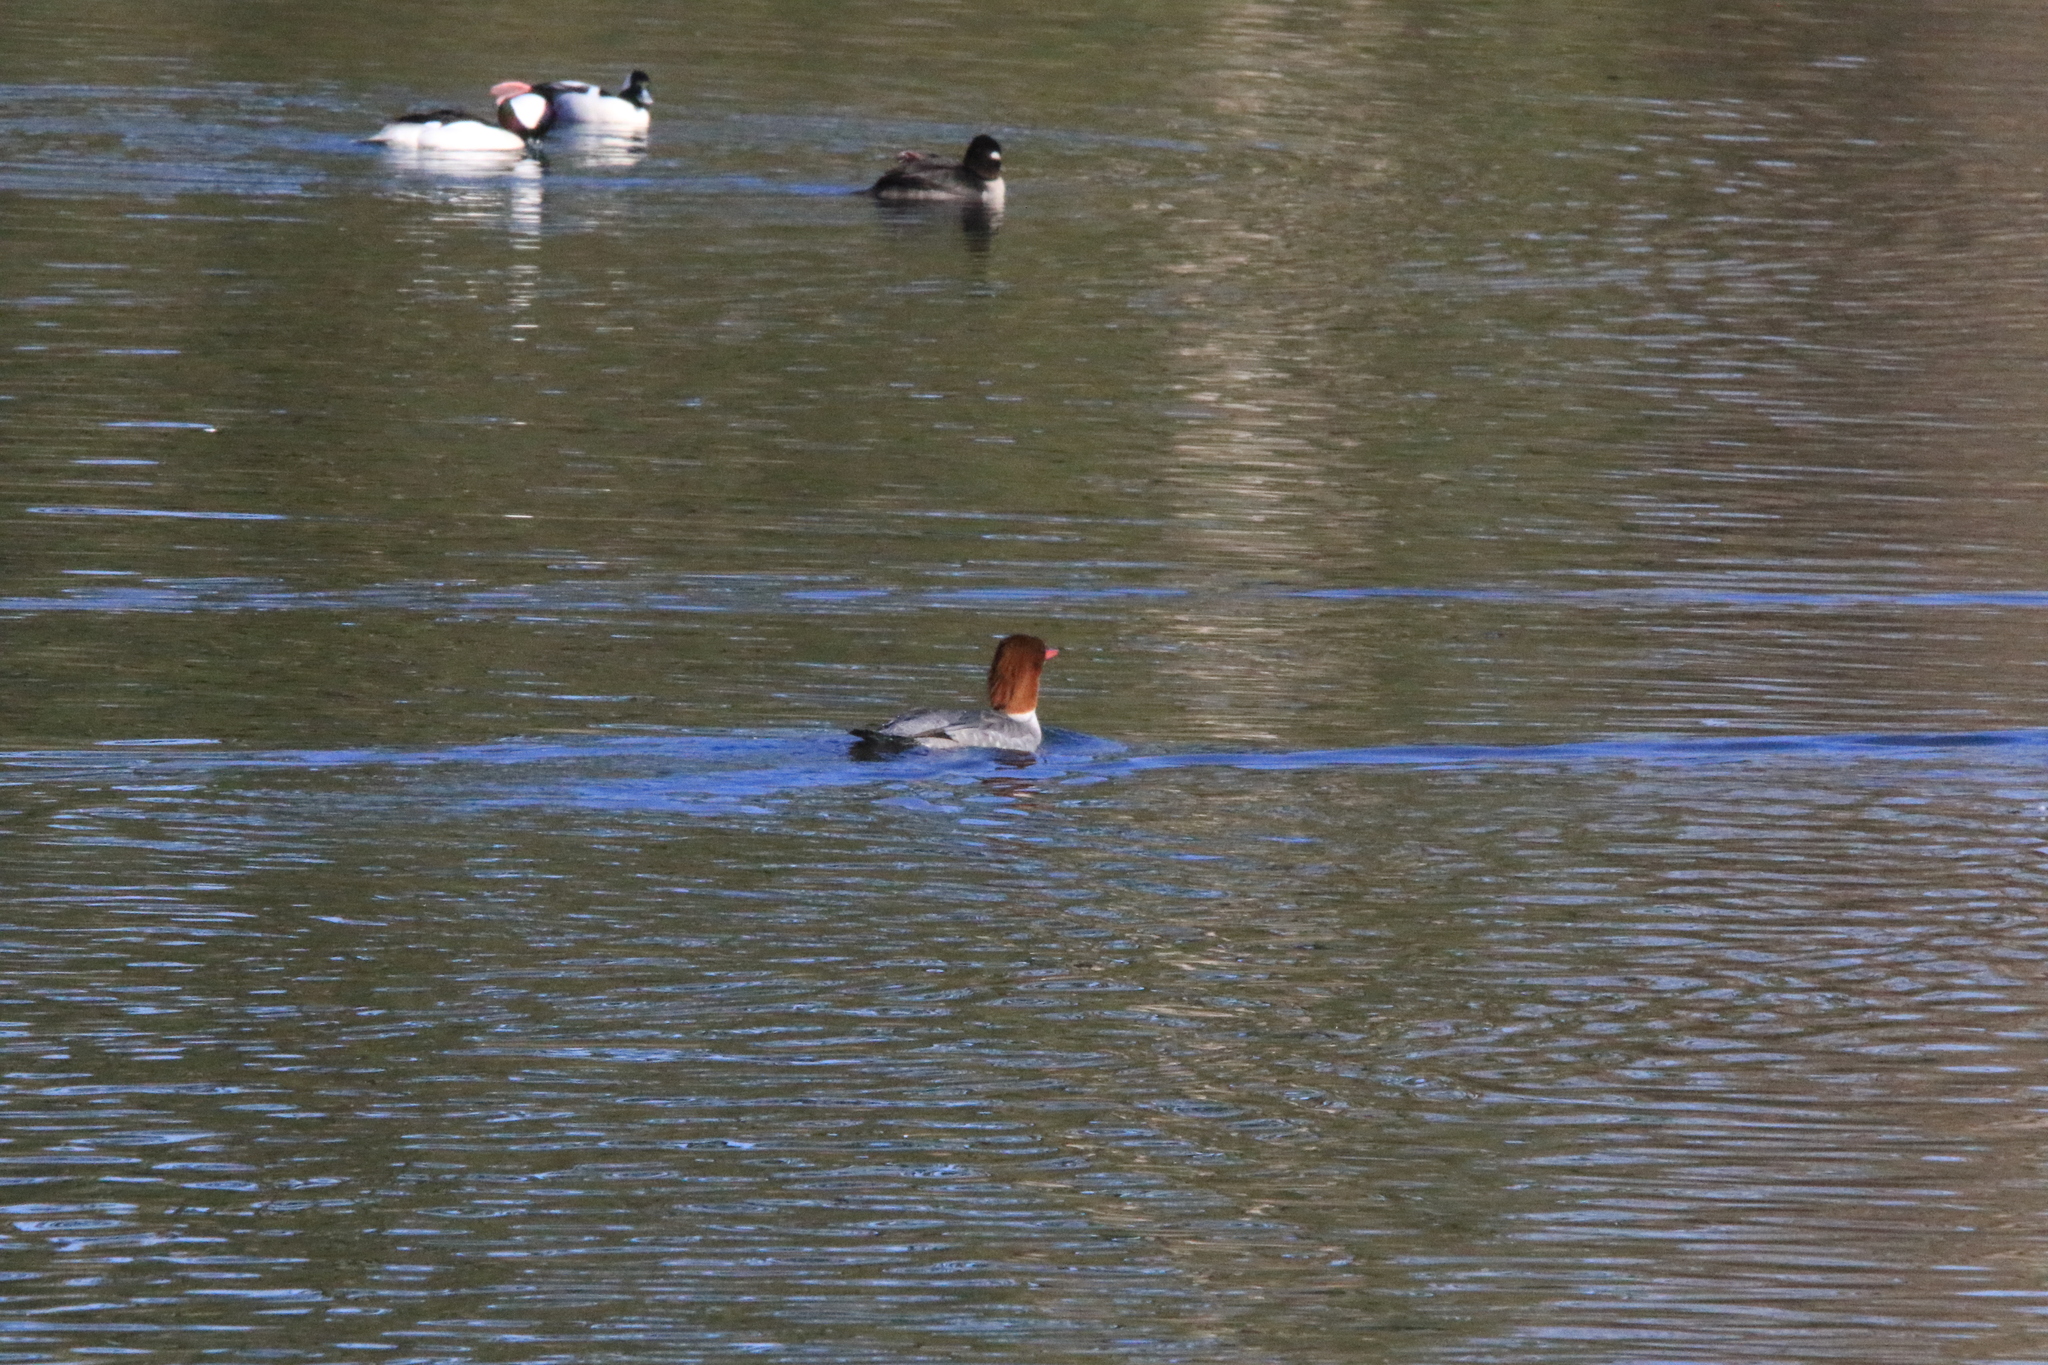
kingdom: Animalia
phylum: Chordata
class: Aves
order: Anseriformes
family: Anatidae
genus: Mergus
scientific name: Mergus merganser
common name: Common merganser
